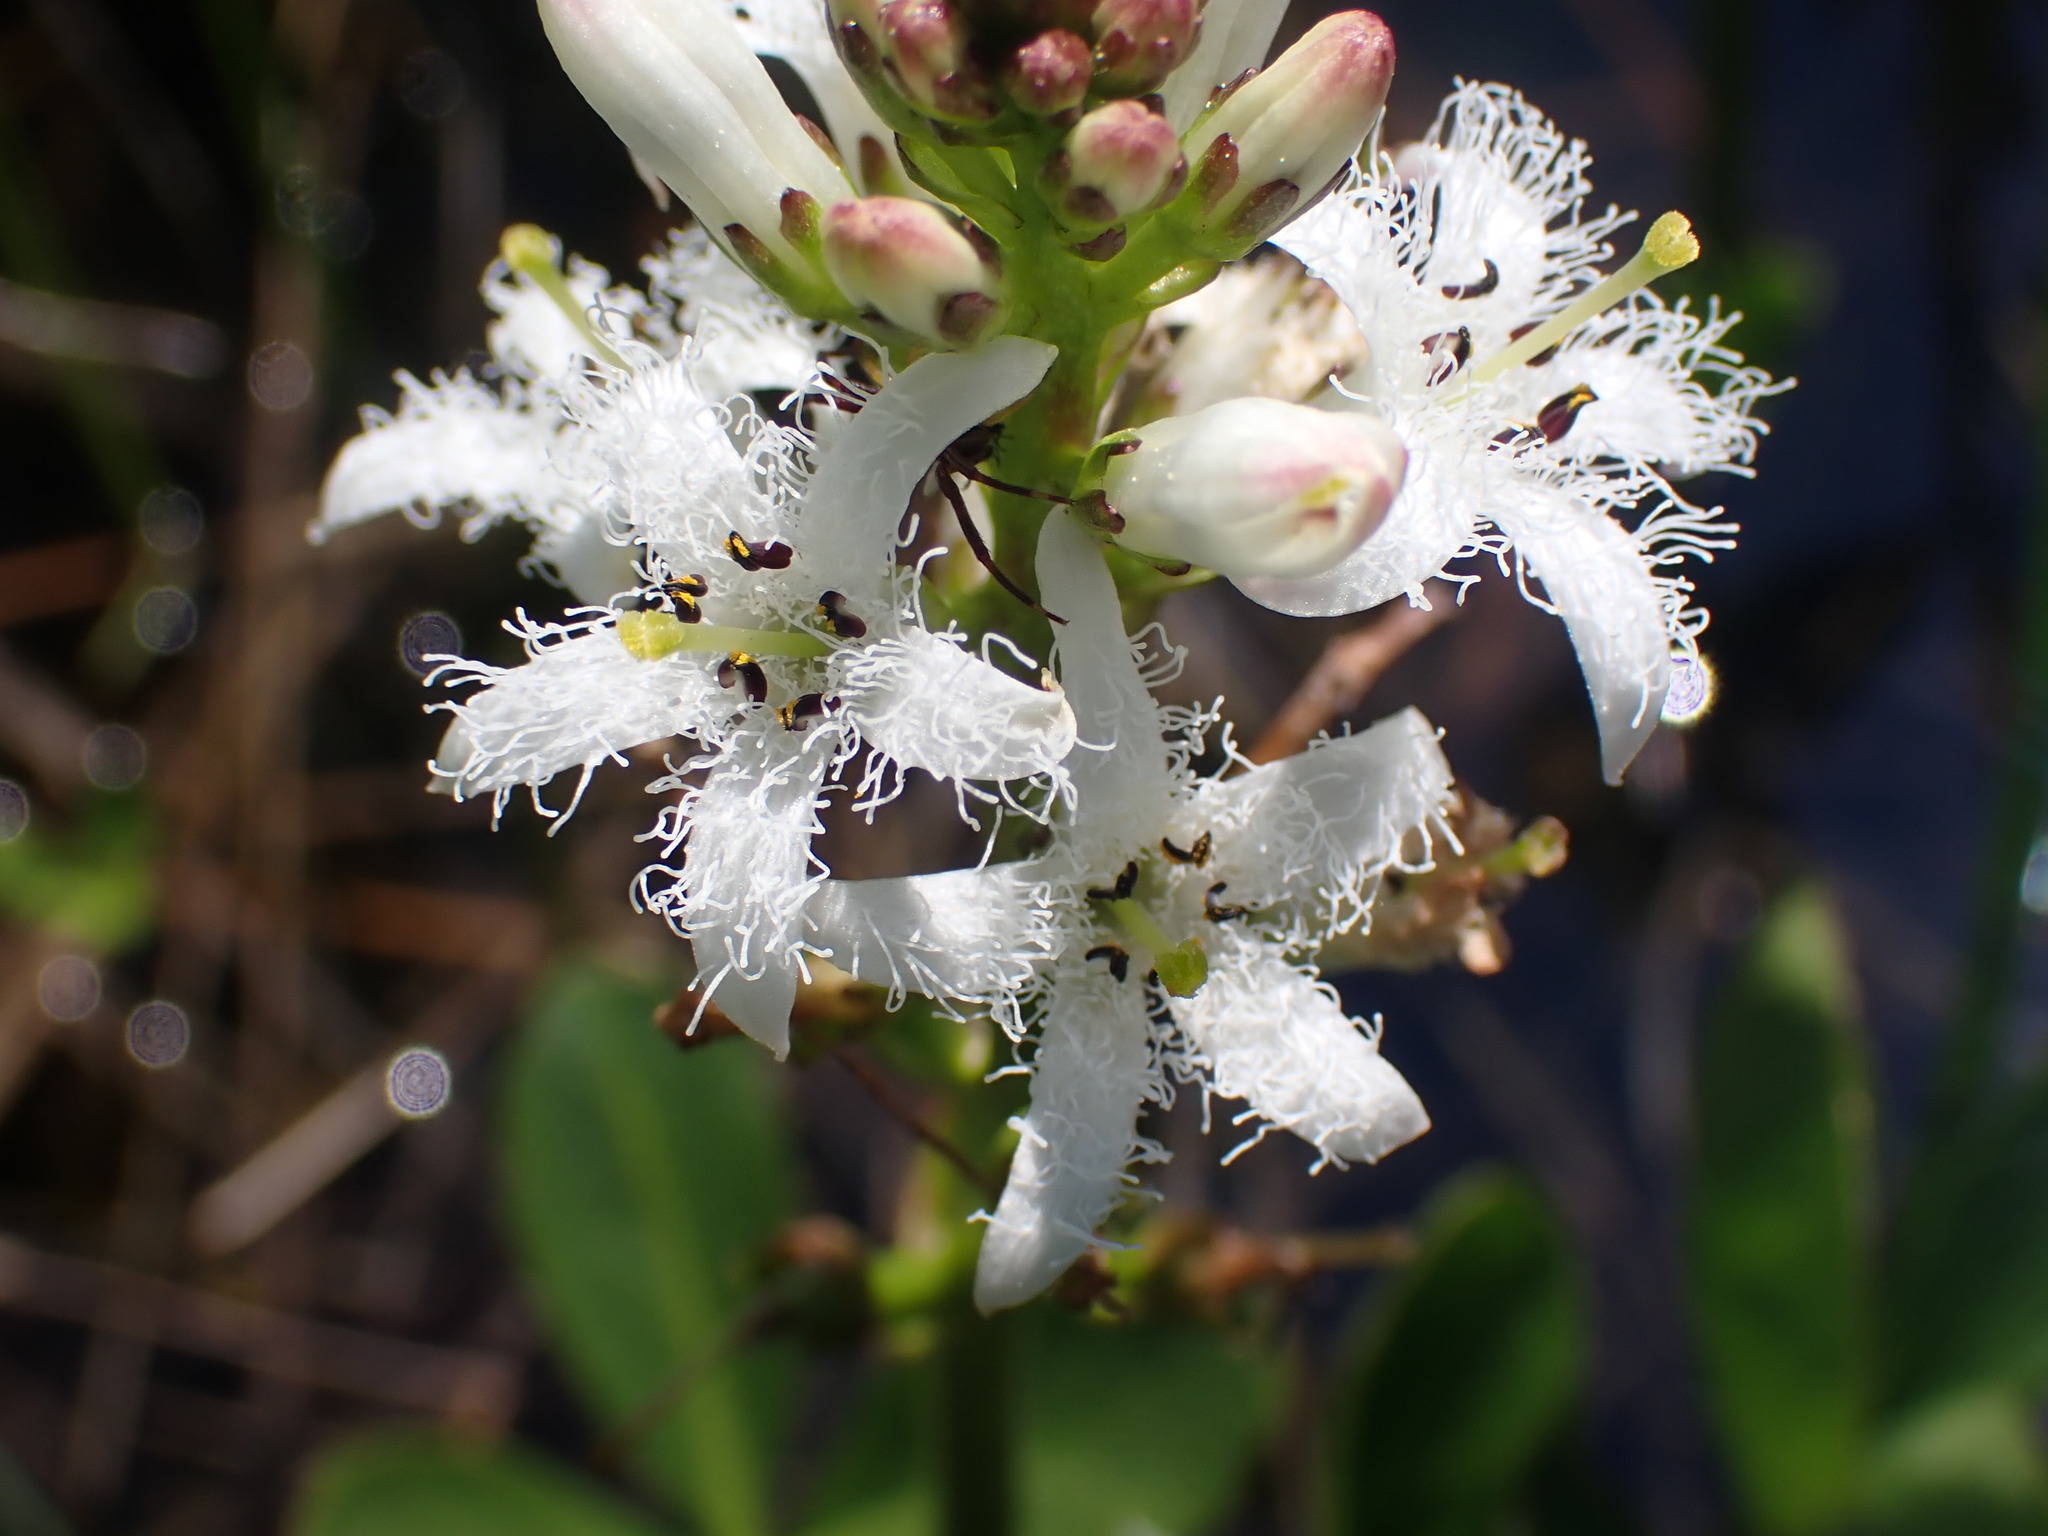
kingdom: Plantae
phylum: Tracheophyta
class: Magnoliopsida
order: Asterales
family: Menyanthaceae
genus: Menyanthes
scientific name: Menyanthes trifoliata
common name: Bogbean
